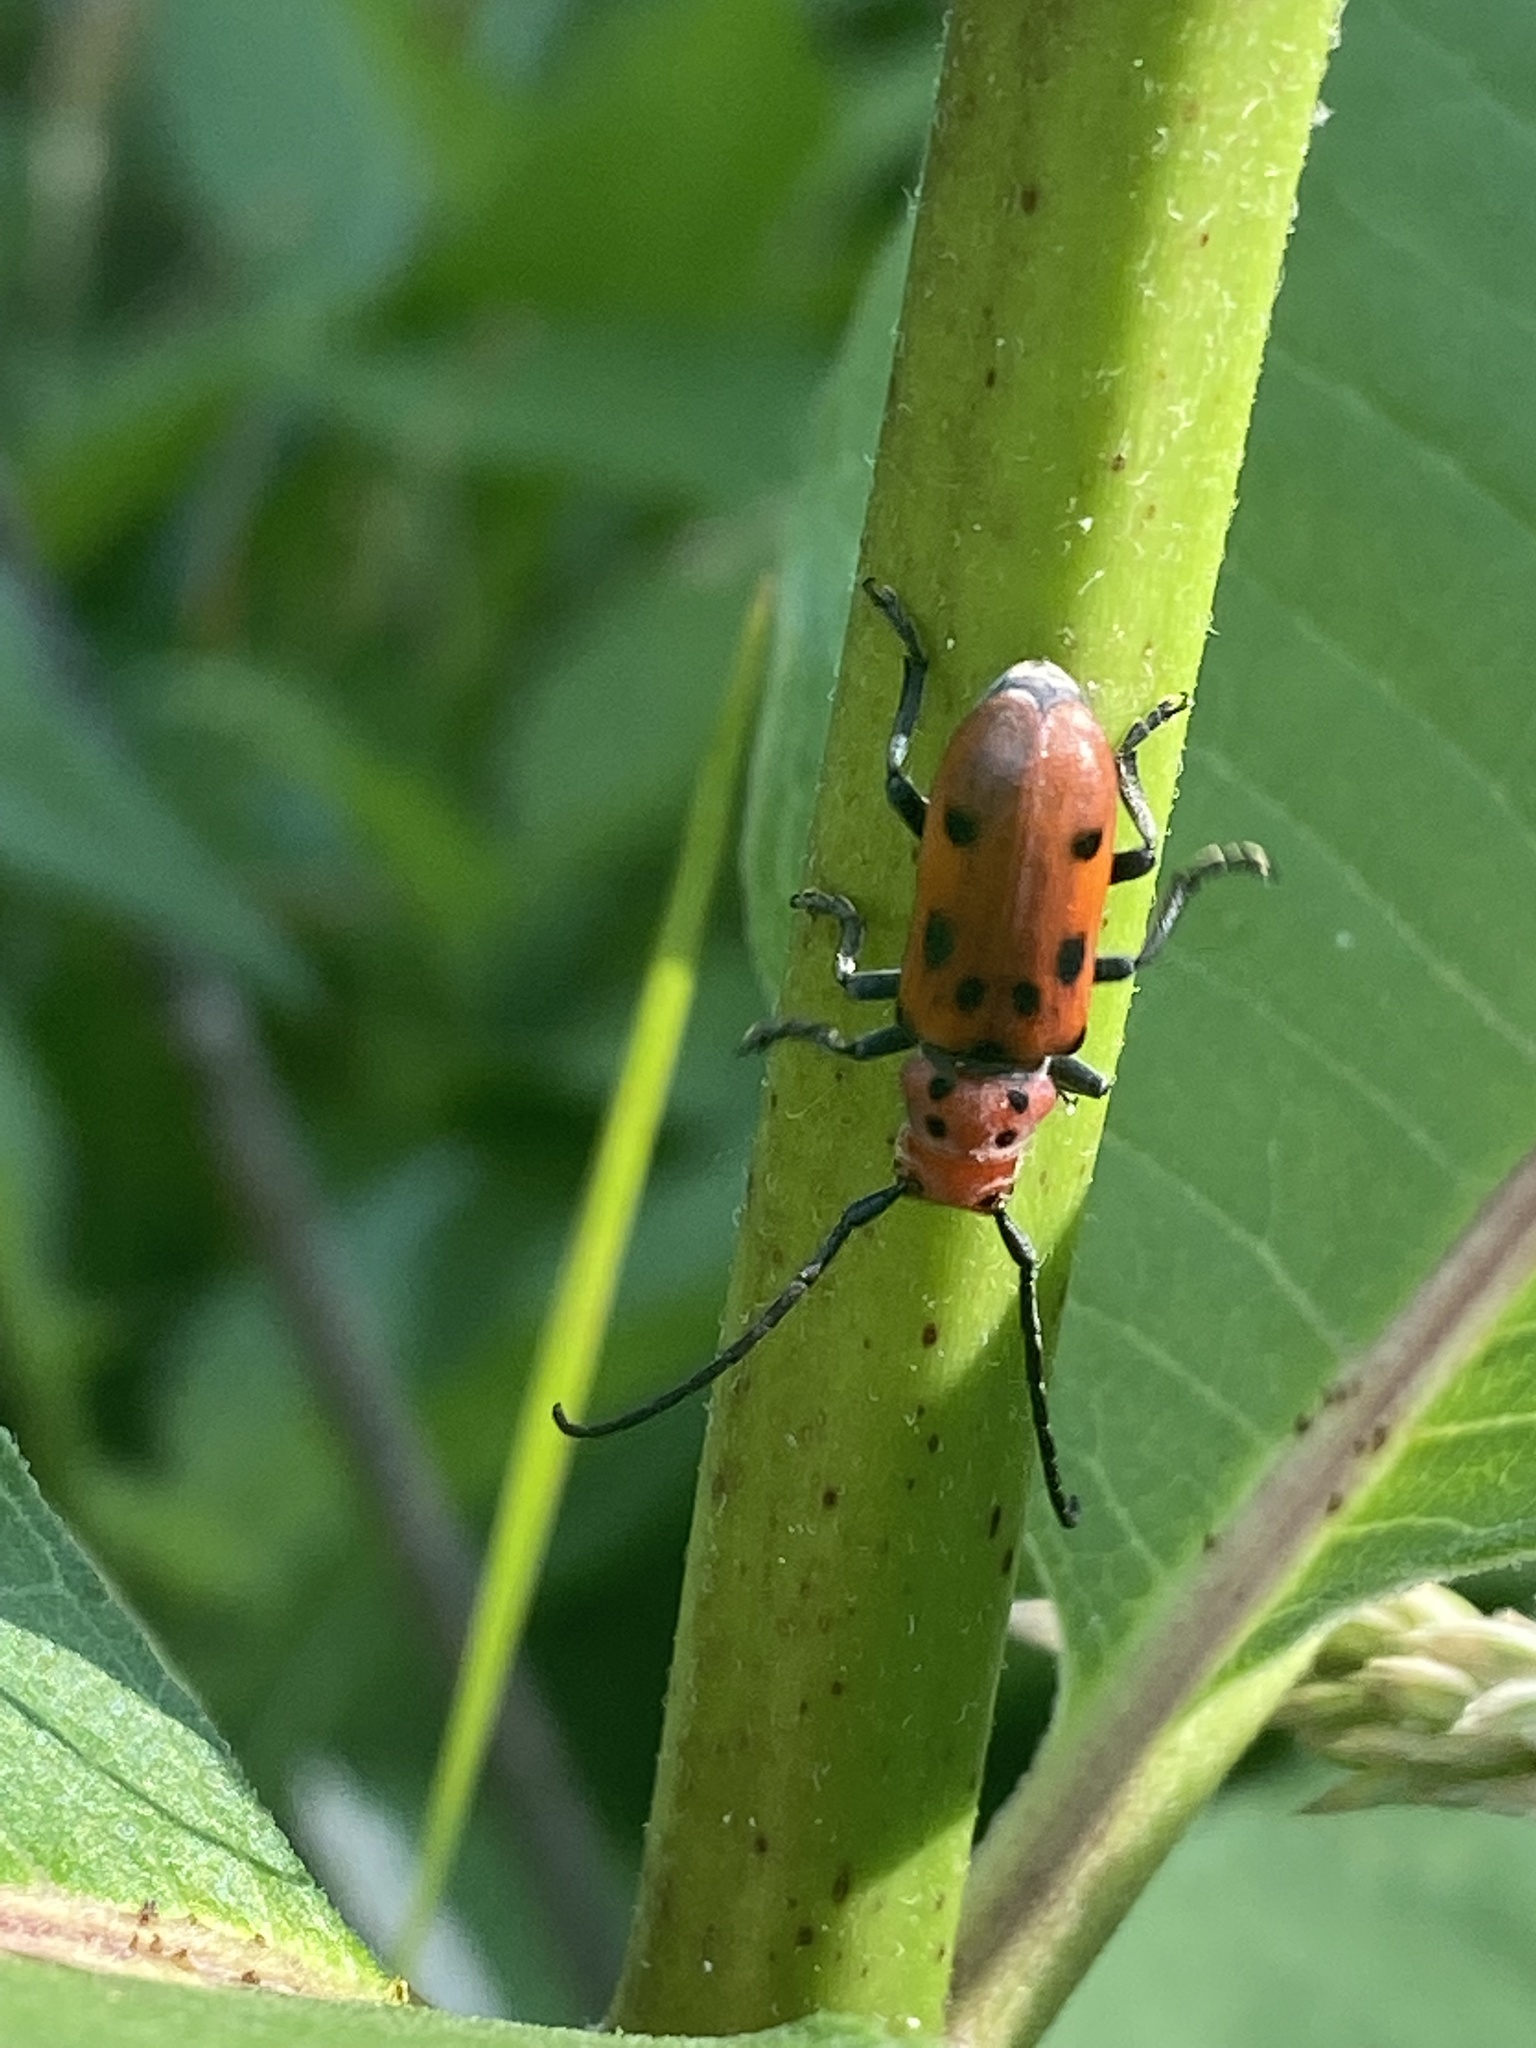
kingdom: Animalia
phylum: Arthropoda
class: Insecta
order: Coleoptera
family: Cerambycidae
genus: Tetraopes
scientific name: Tetraopes tetrophthalmus
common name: Red milkweed beetle
